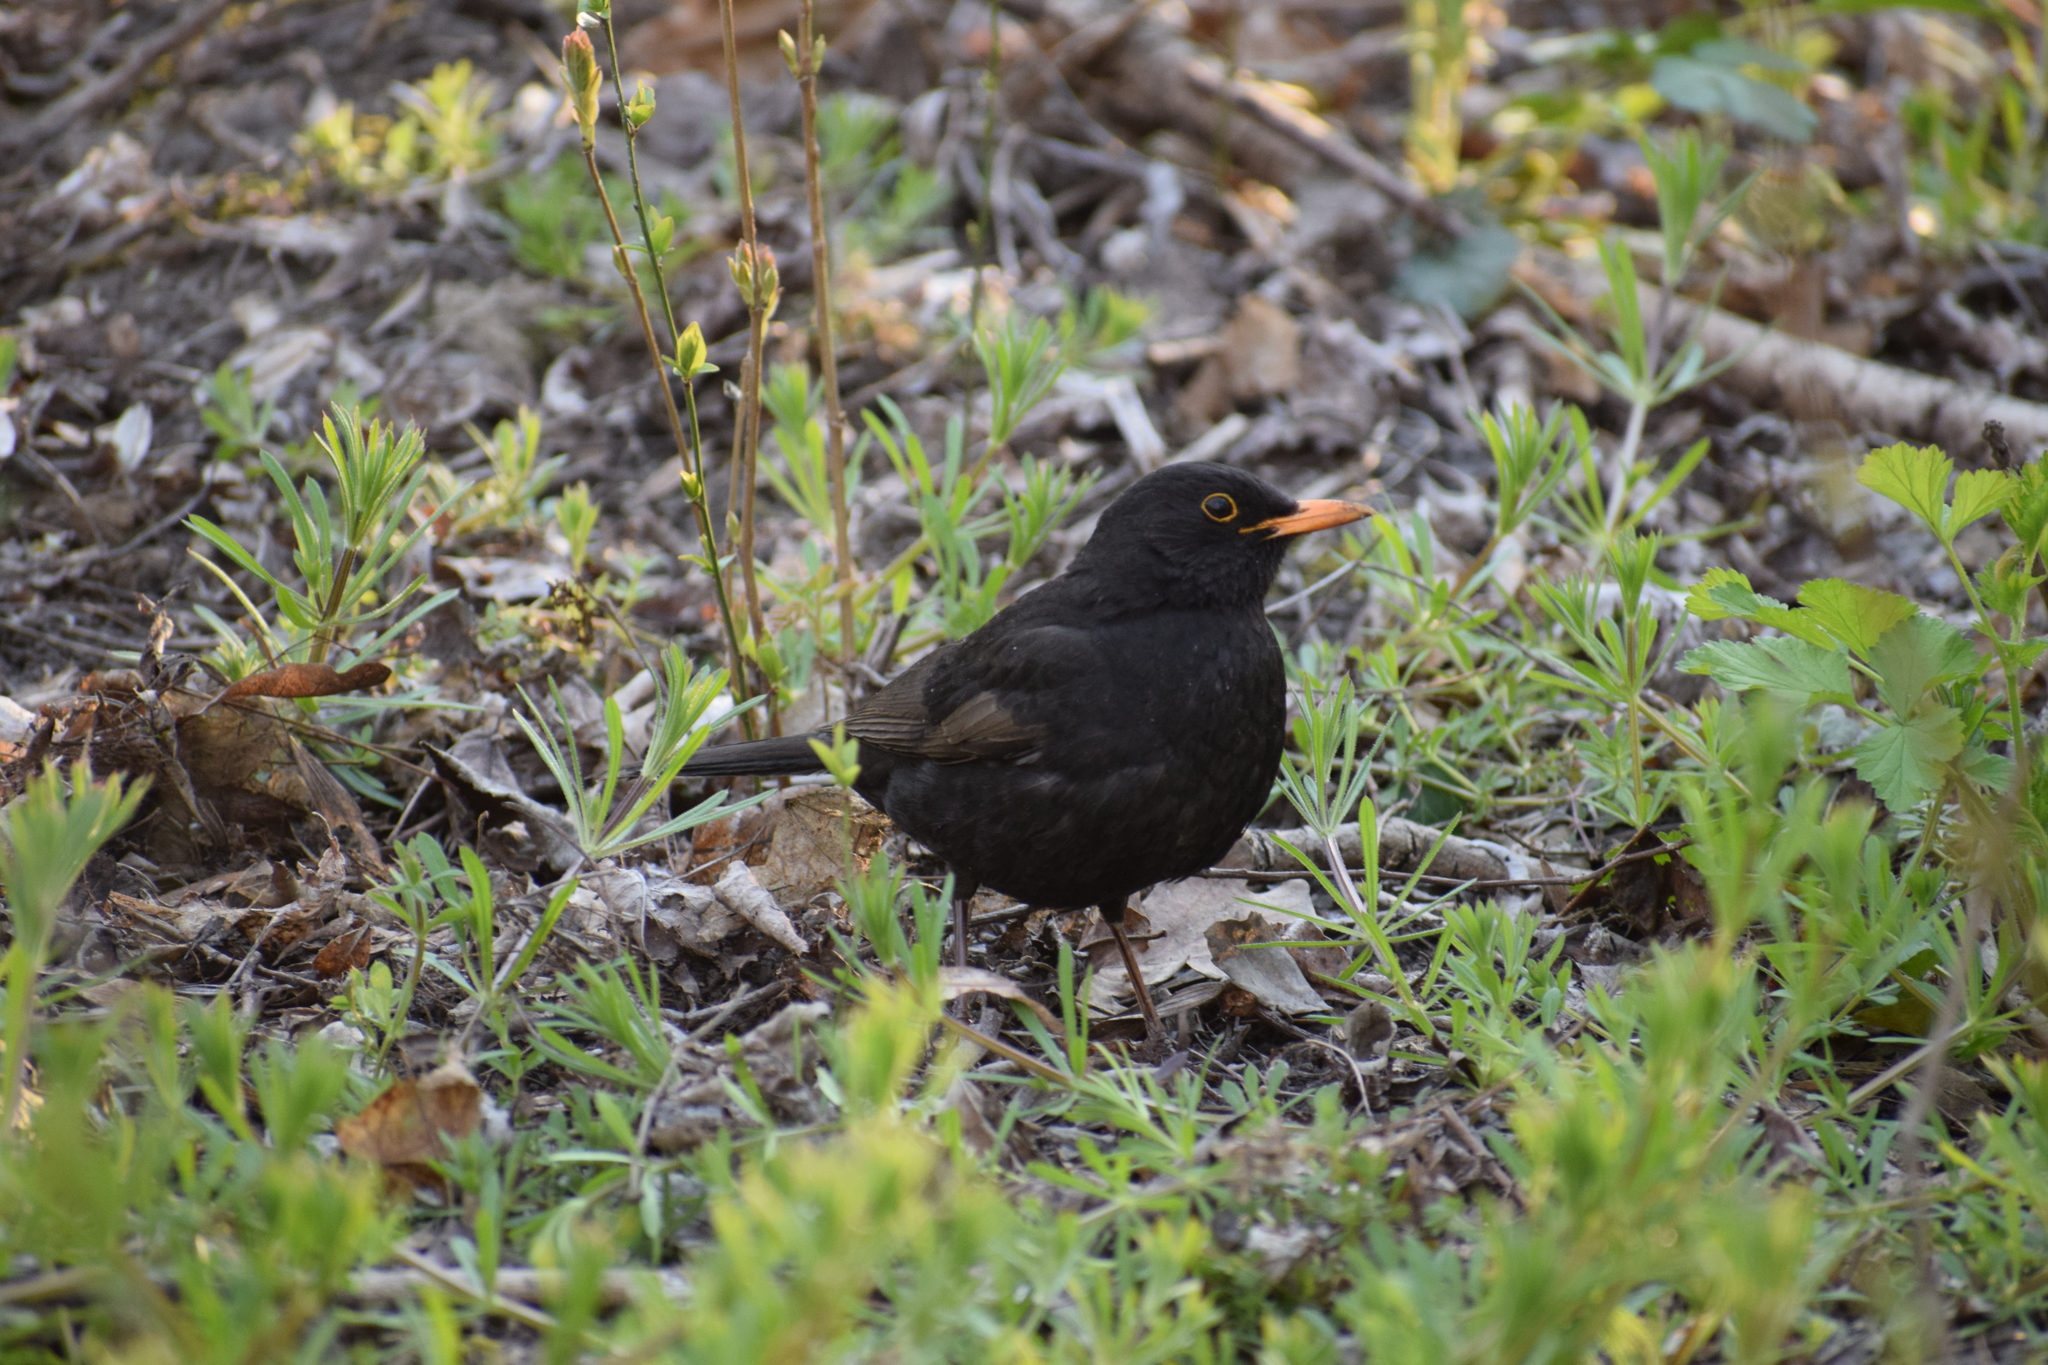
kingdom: Animalia
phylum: Chordata
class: Aves
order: Passeriformes
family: Turdidae
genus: Turdus
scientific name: Turdus merula
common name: Common blackbird
